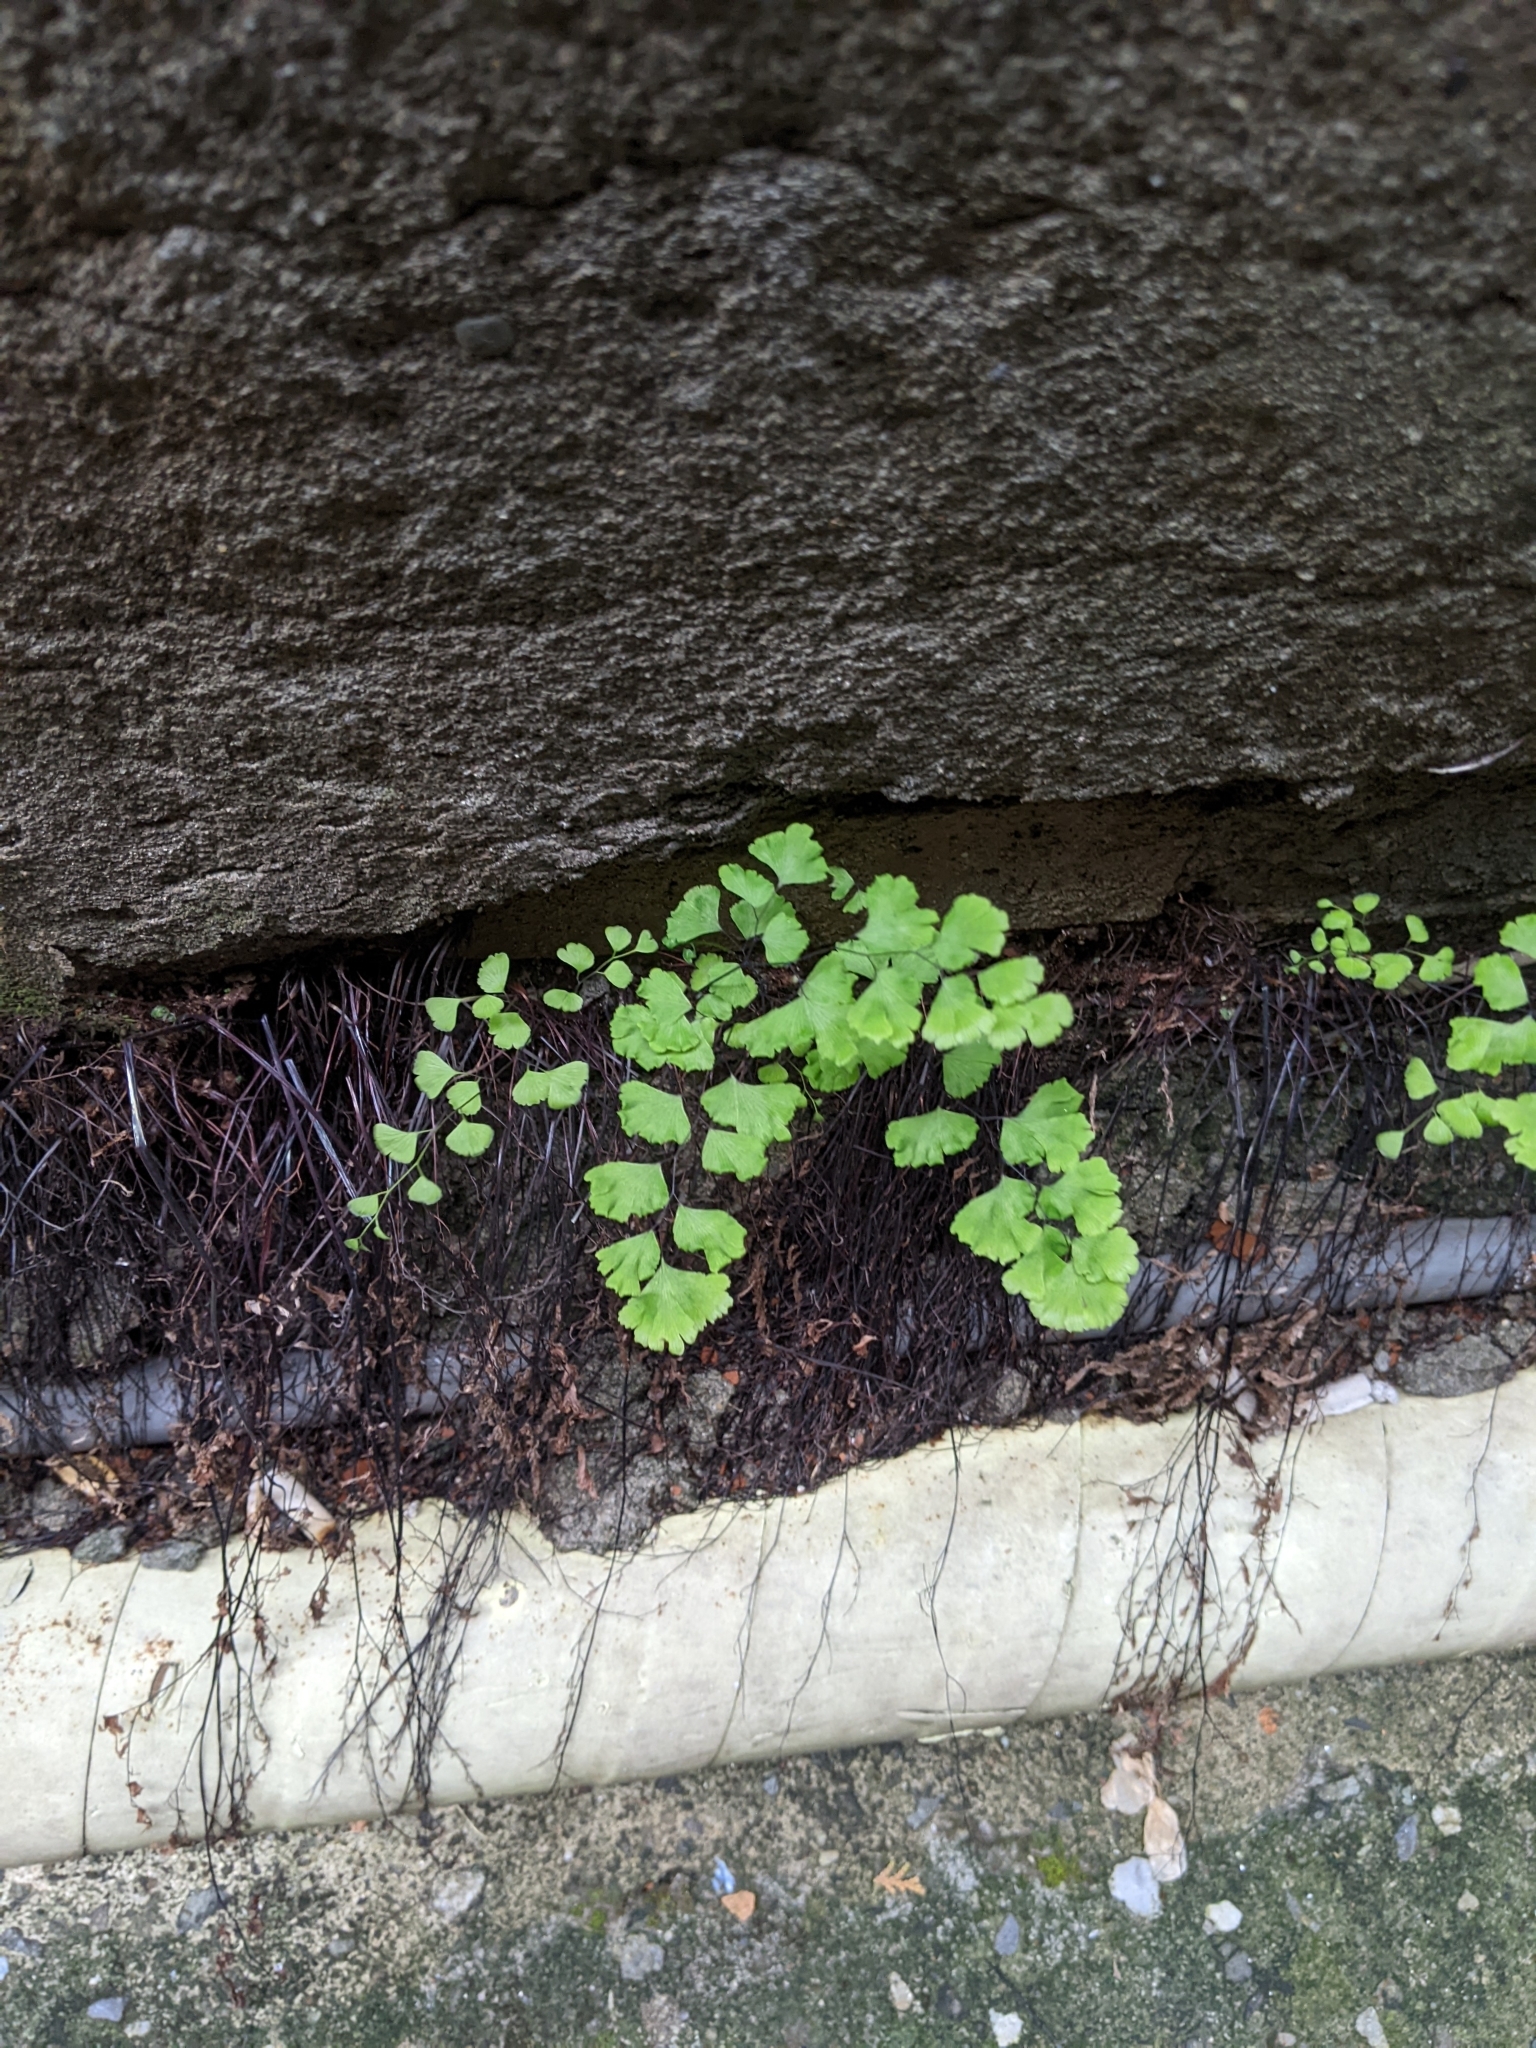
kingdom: Plantae
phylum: Tracheophyta
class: Polypodiopsida
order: Polypodiales
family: Pteridaceae
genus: Adiantum
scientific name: Adiantum capillus-veneris
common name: Maidenhair fern
